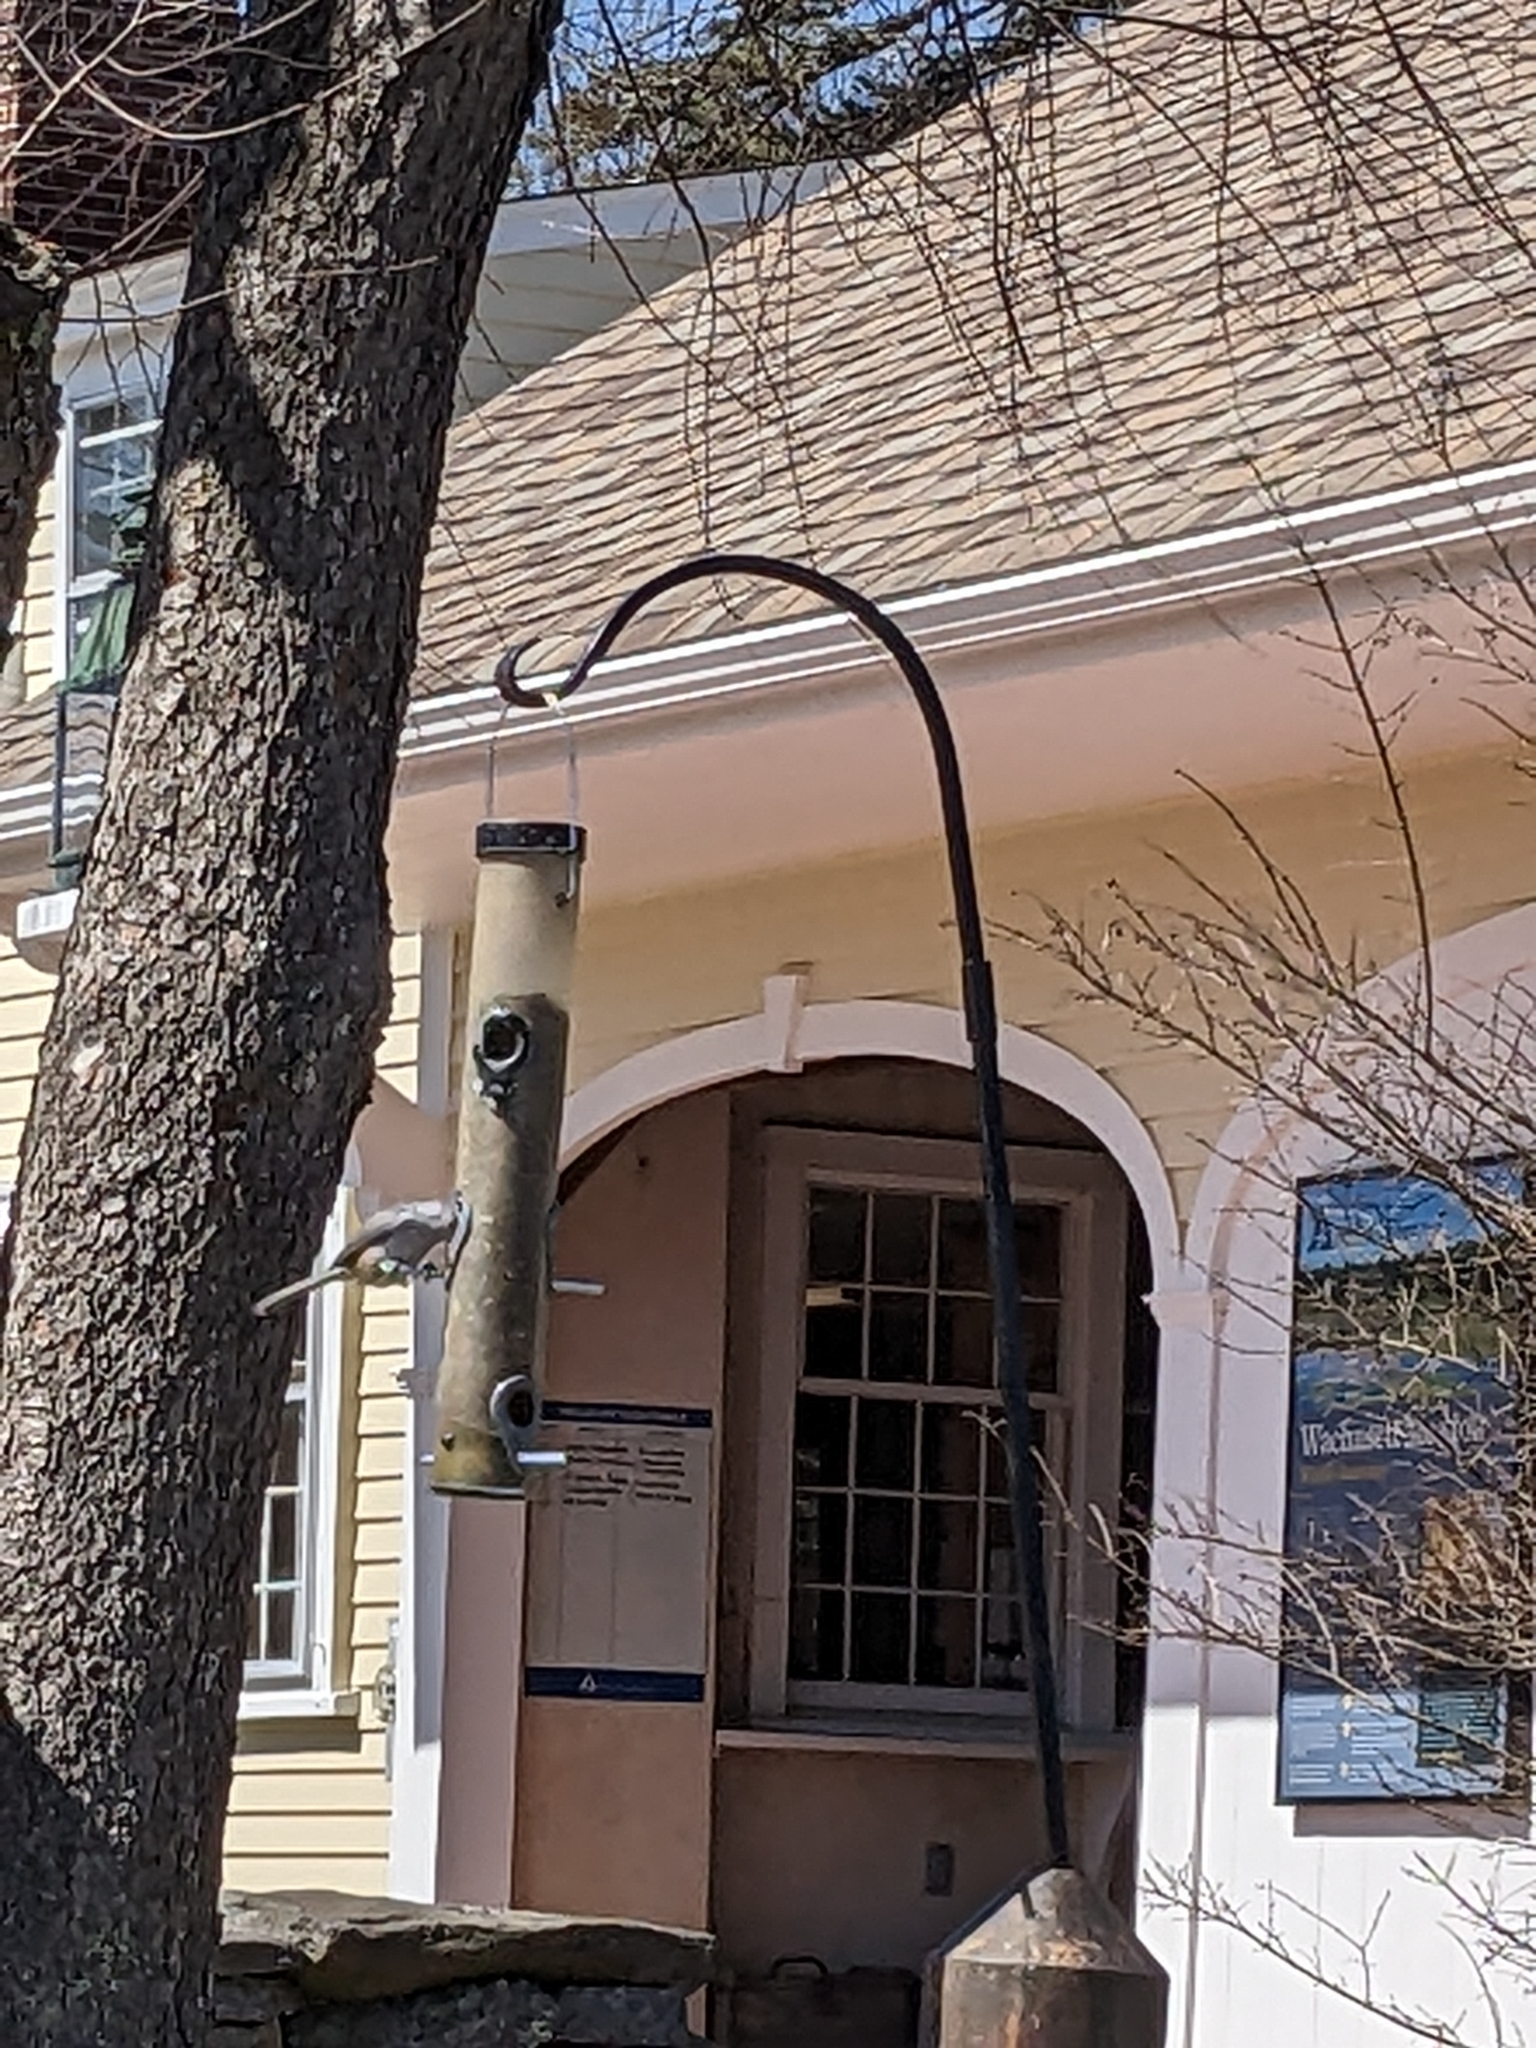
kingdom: Animalia
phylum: Chordata
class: Aves
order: Passeriformes
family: Paridae
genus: Baeolophus
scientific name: Baeolophus bicolor
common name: Tufted titmouse
